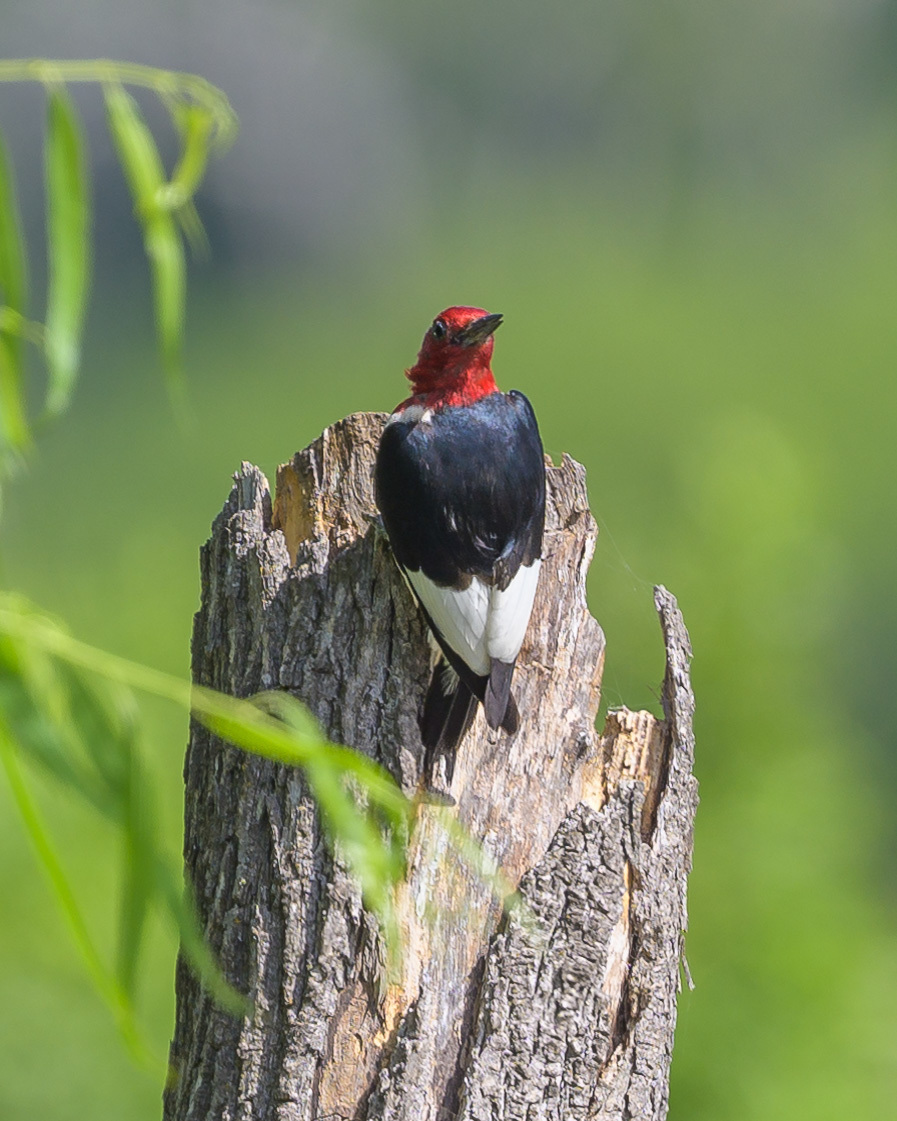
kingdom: Animalia
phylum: Chordata
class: Aves
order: Piciformes
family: Picidae
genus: Melanerpes
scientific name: Melanerpes erythrocephalus
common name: Red-headed woodpecker
